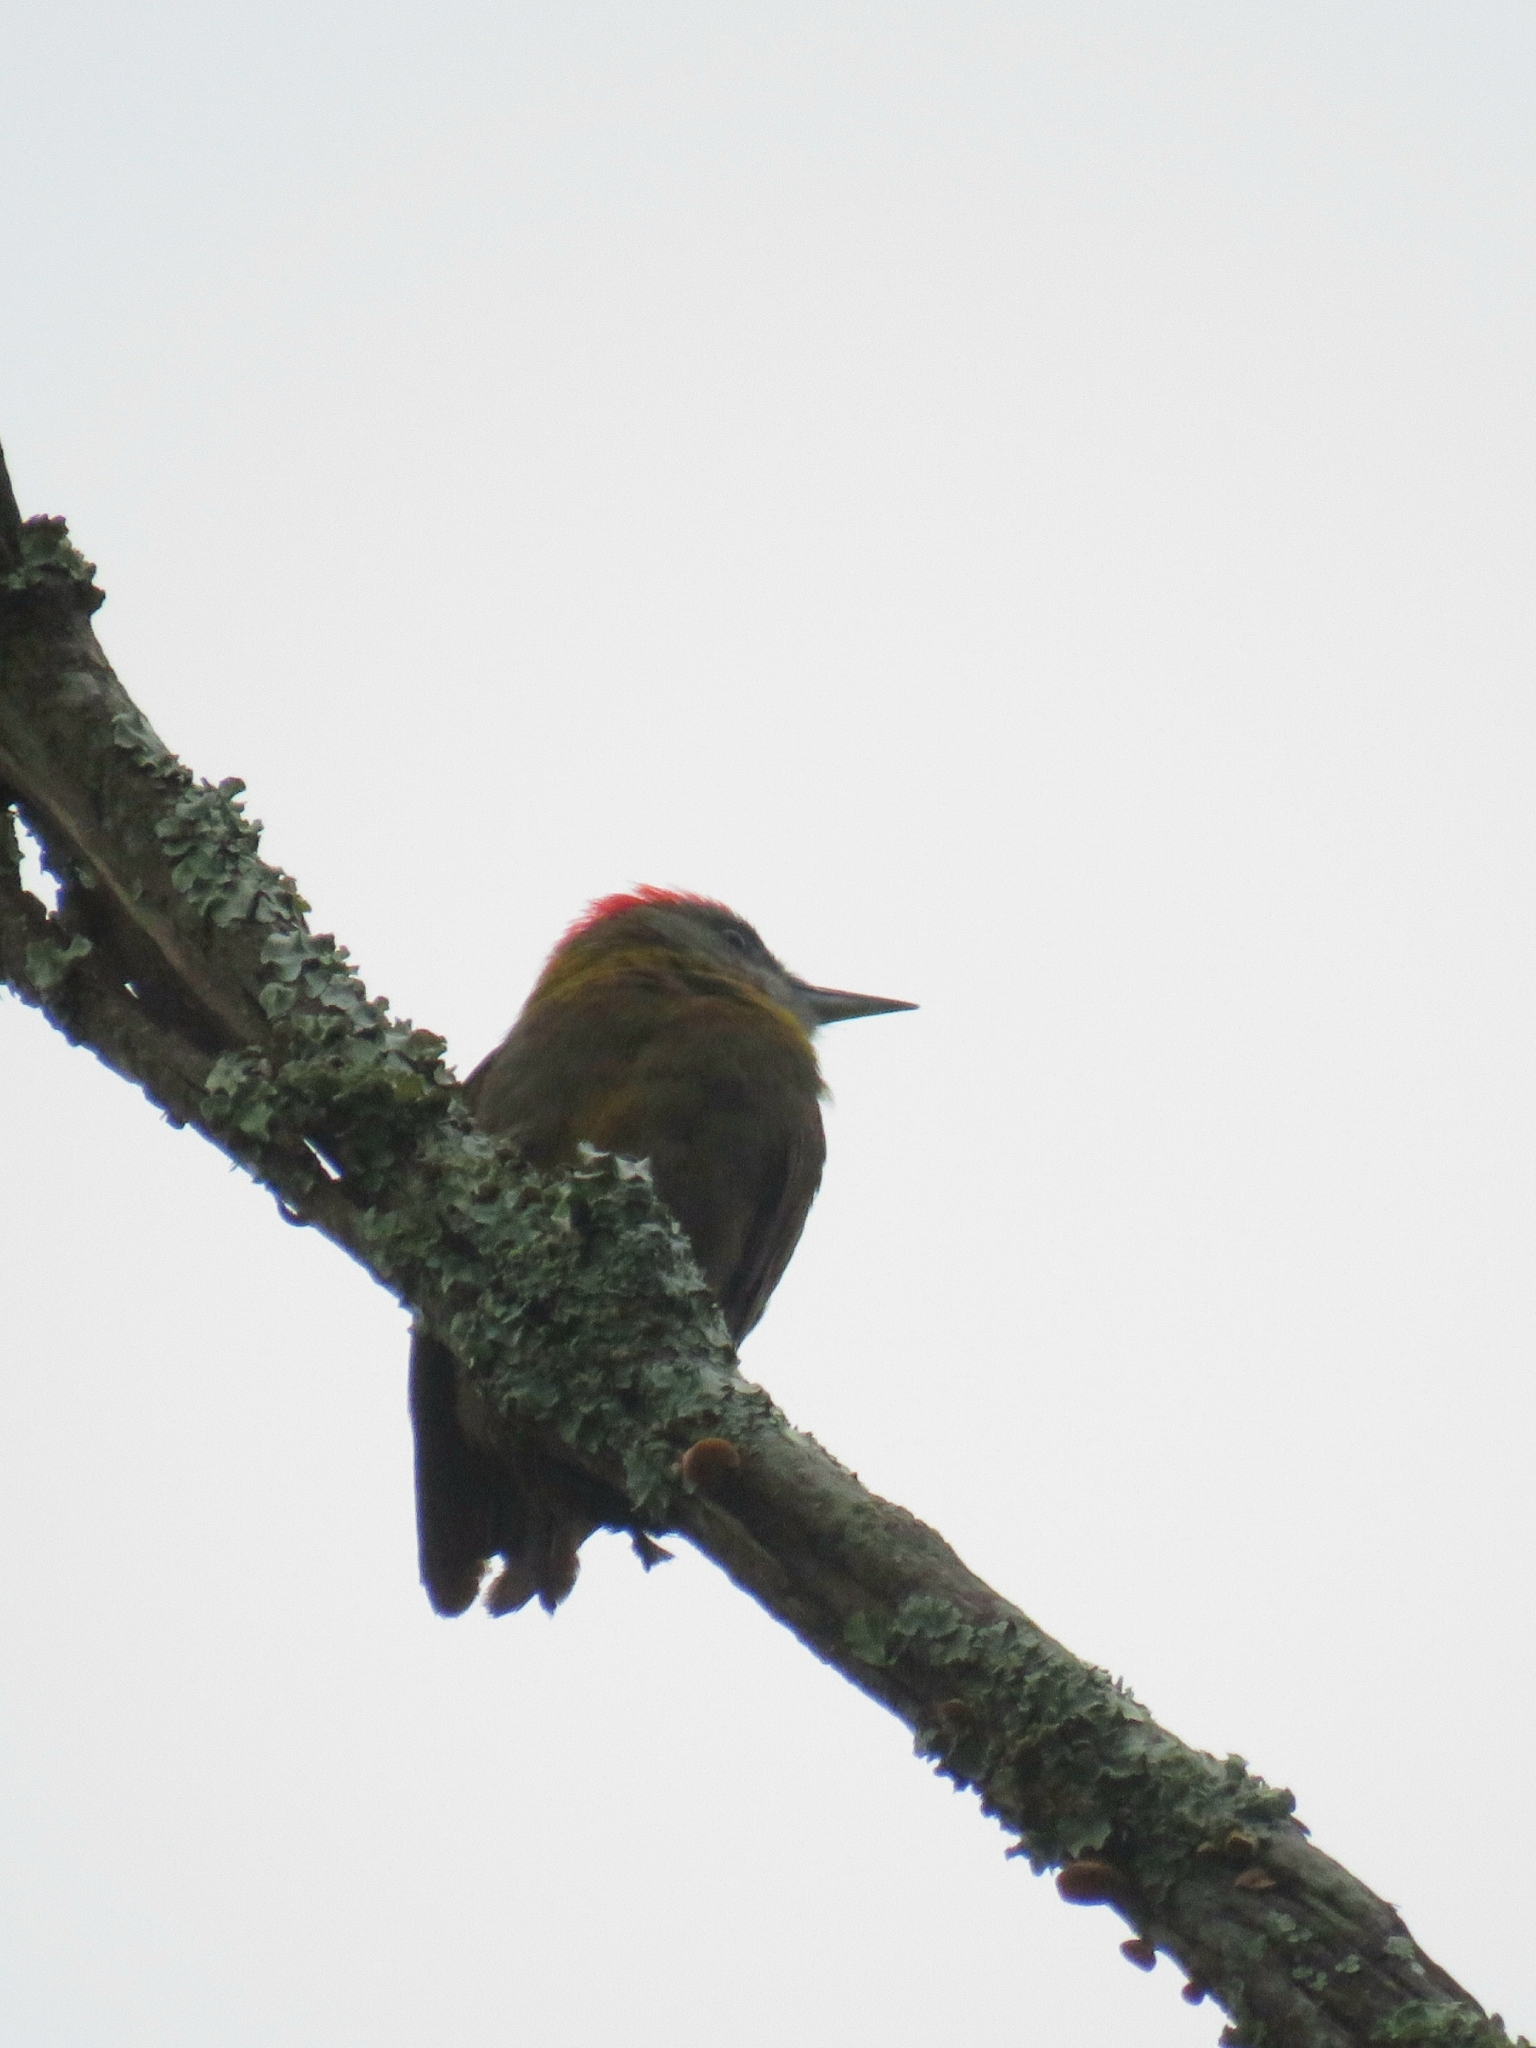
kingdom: Animalia
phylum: Chordata
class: Aves
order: Piciformes
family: Picidae
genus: Dendropicos
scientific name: Dendropicos griseocephalus
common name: Olive woodpecker
